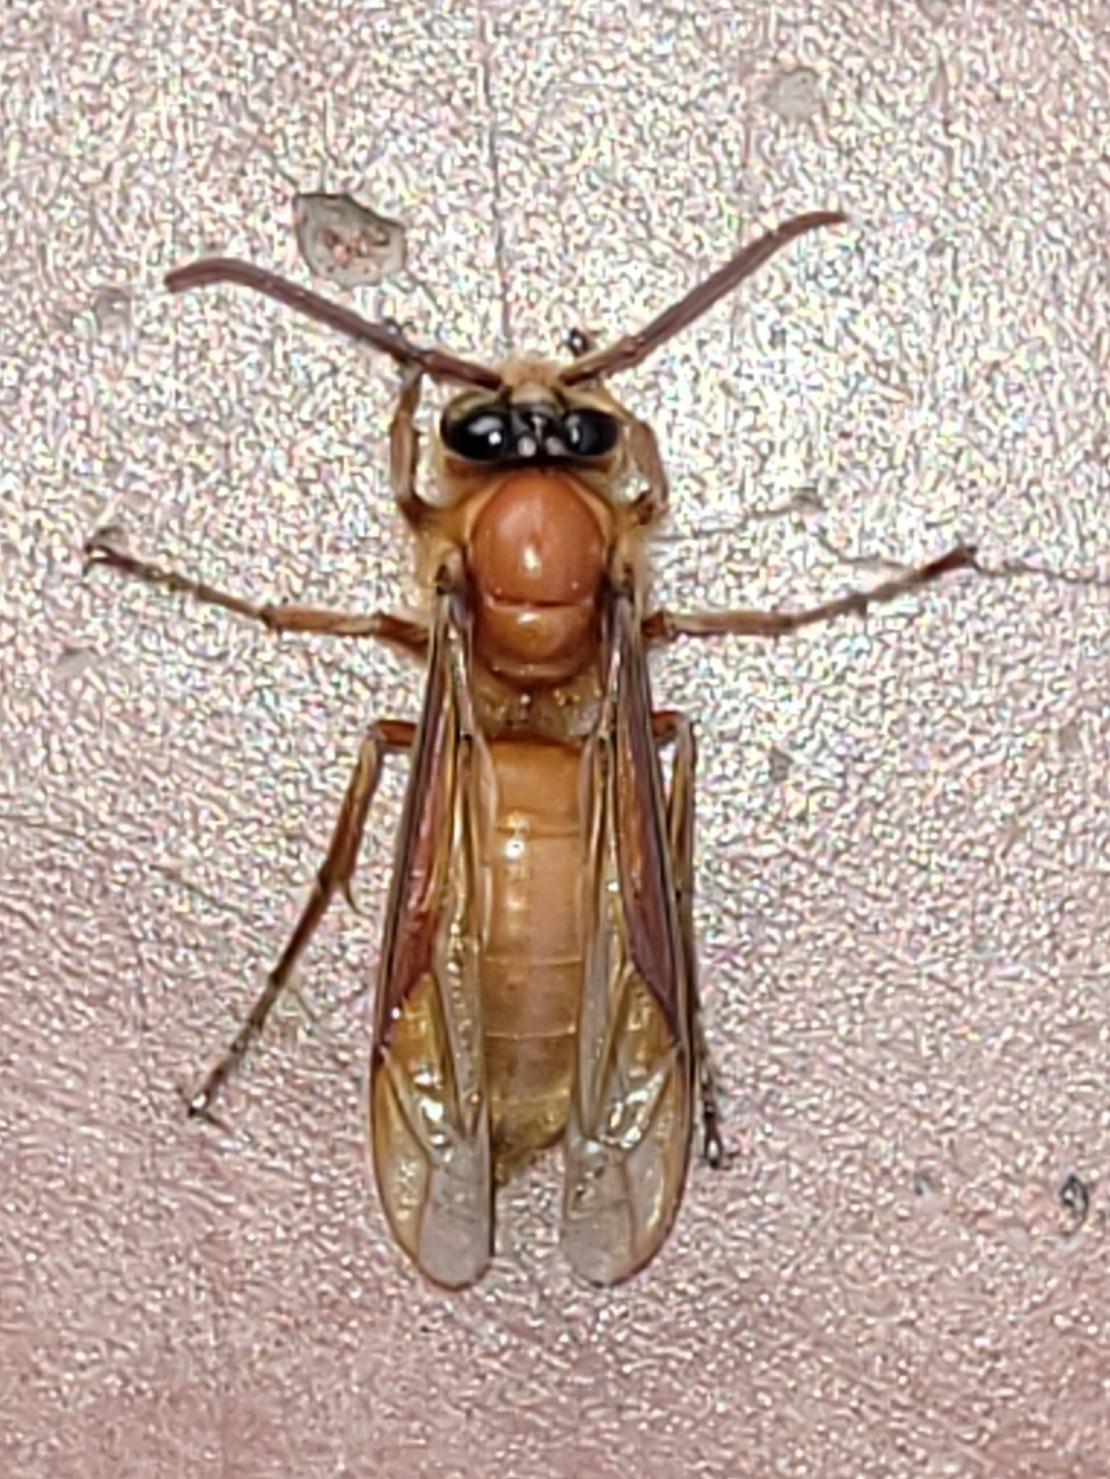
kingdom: Animalia
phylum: Arthropoda
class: Insecta
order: Hymenoptera
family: Vespidae
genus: Provespa
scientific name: Provespa barthelemyi
